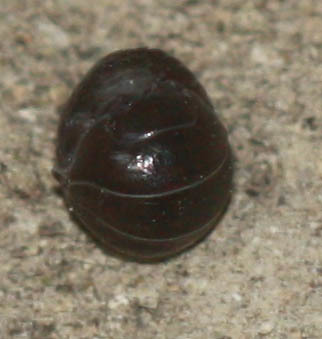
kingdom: Animalia
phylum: Arthropoda
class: Malacostraca
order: Isopoda
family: Armadillidiidae
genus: Armadillidium
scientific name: Armadillidium vulgare
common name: Common pill woodlouse
